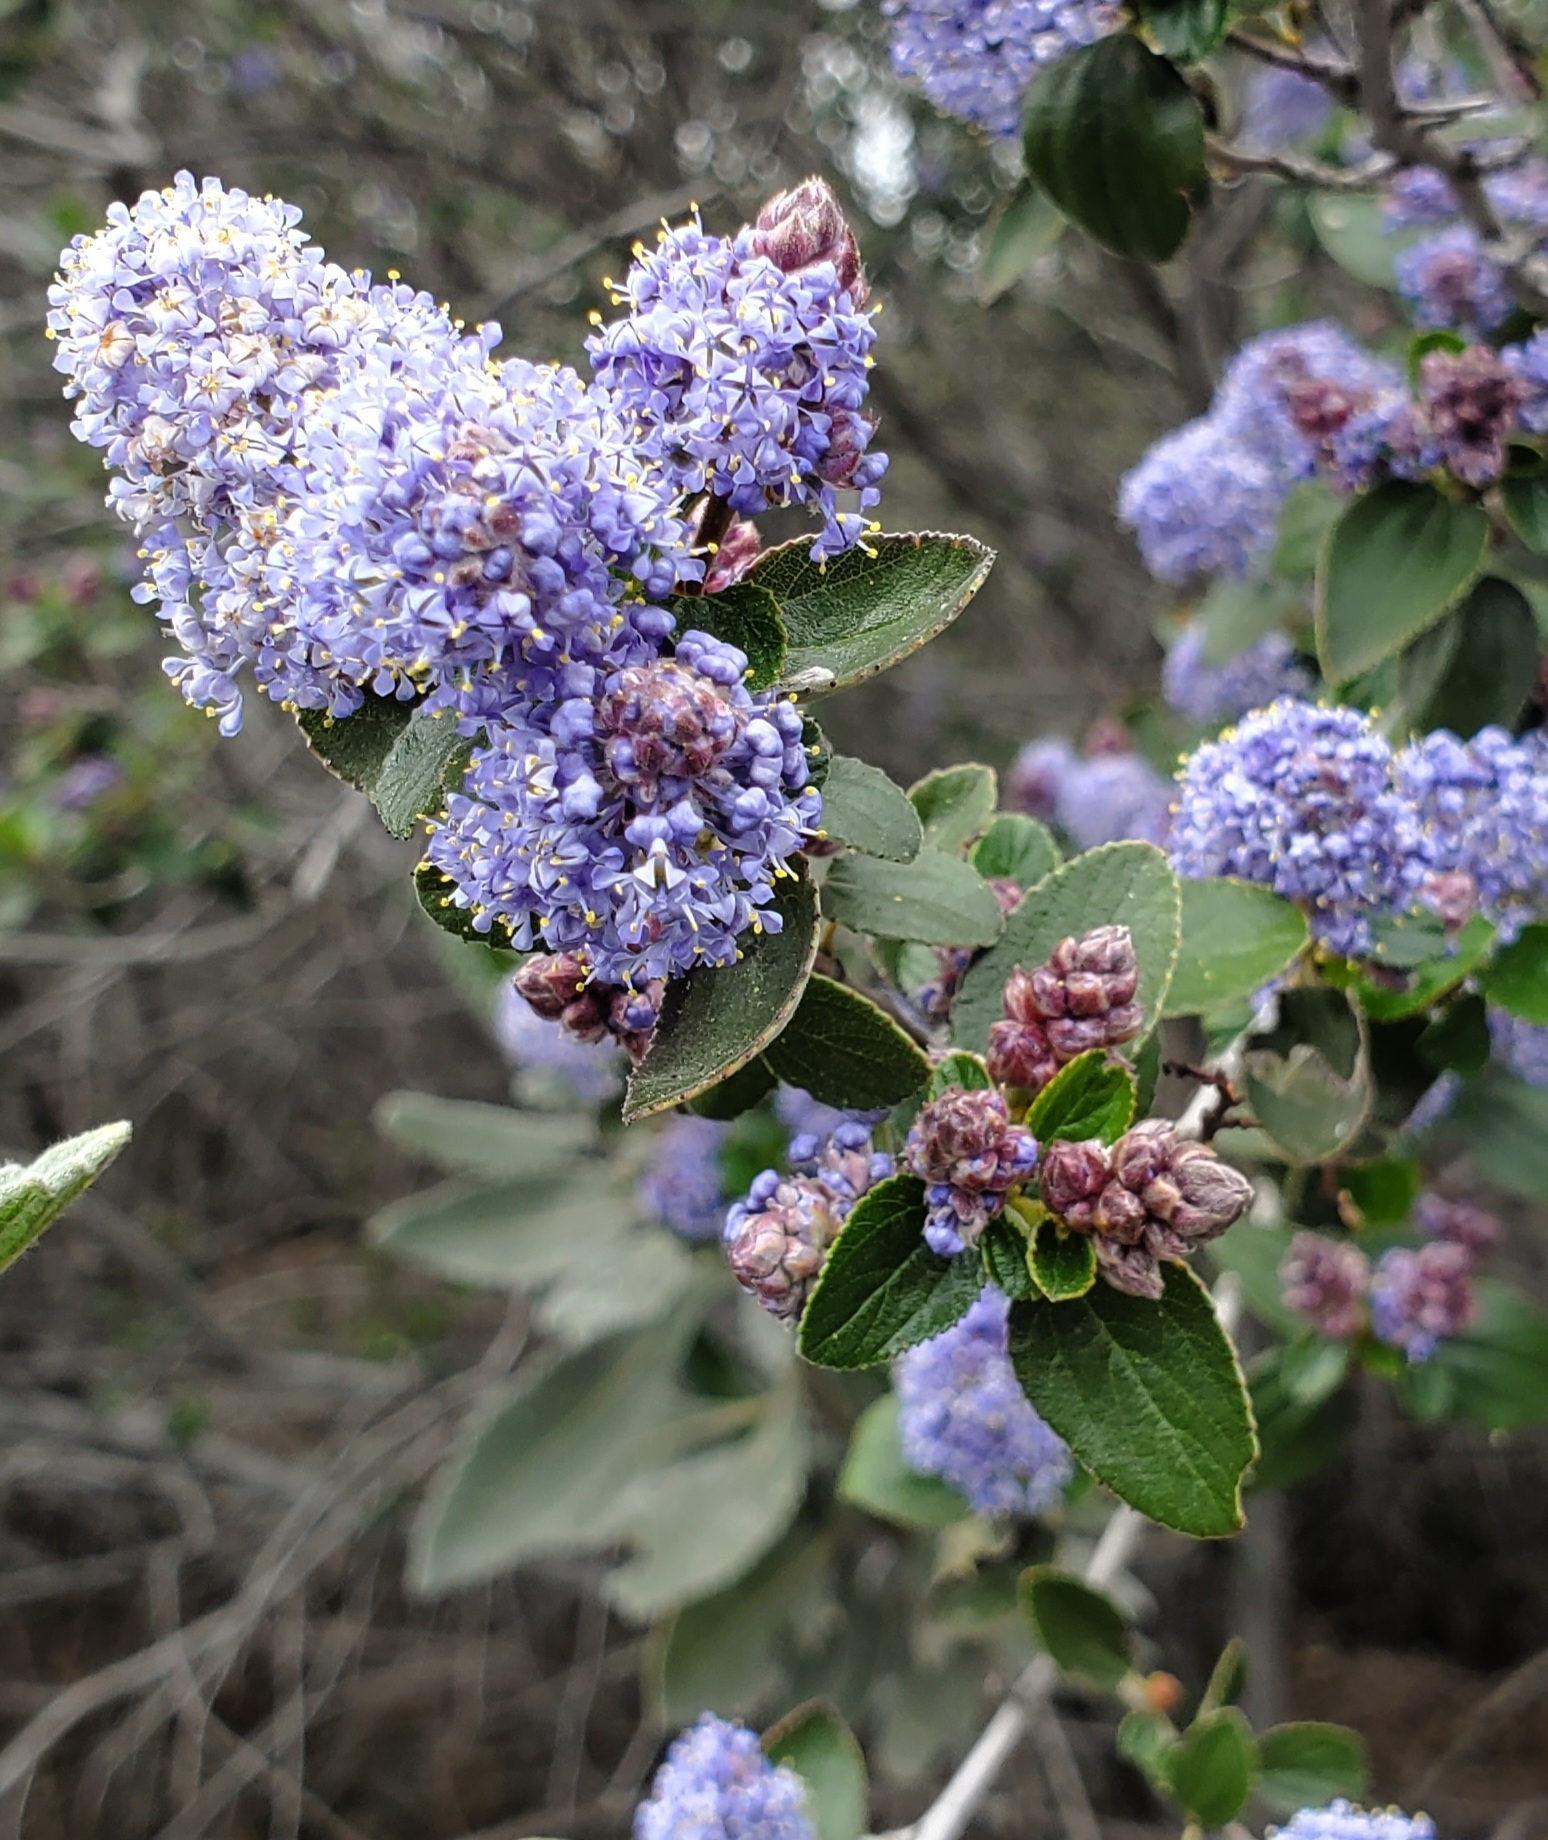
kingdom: Plantae
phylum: Tracheophyta
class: Magnoliopsida
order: Rosales
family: Rhamnaceae
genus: Ceanothus
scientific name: Ceanothus tomentosus
